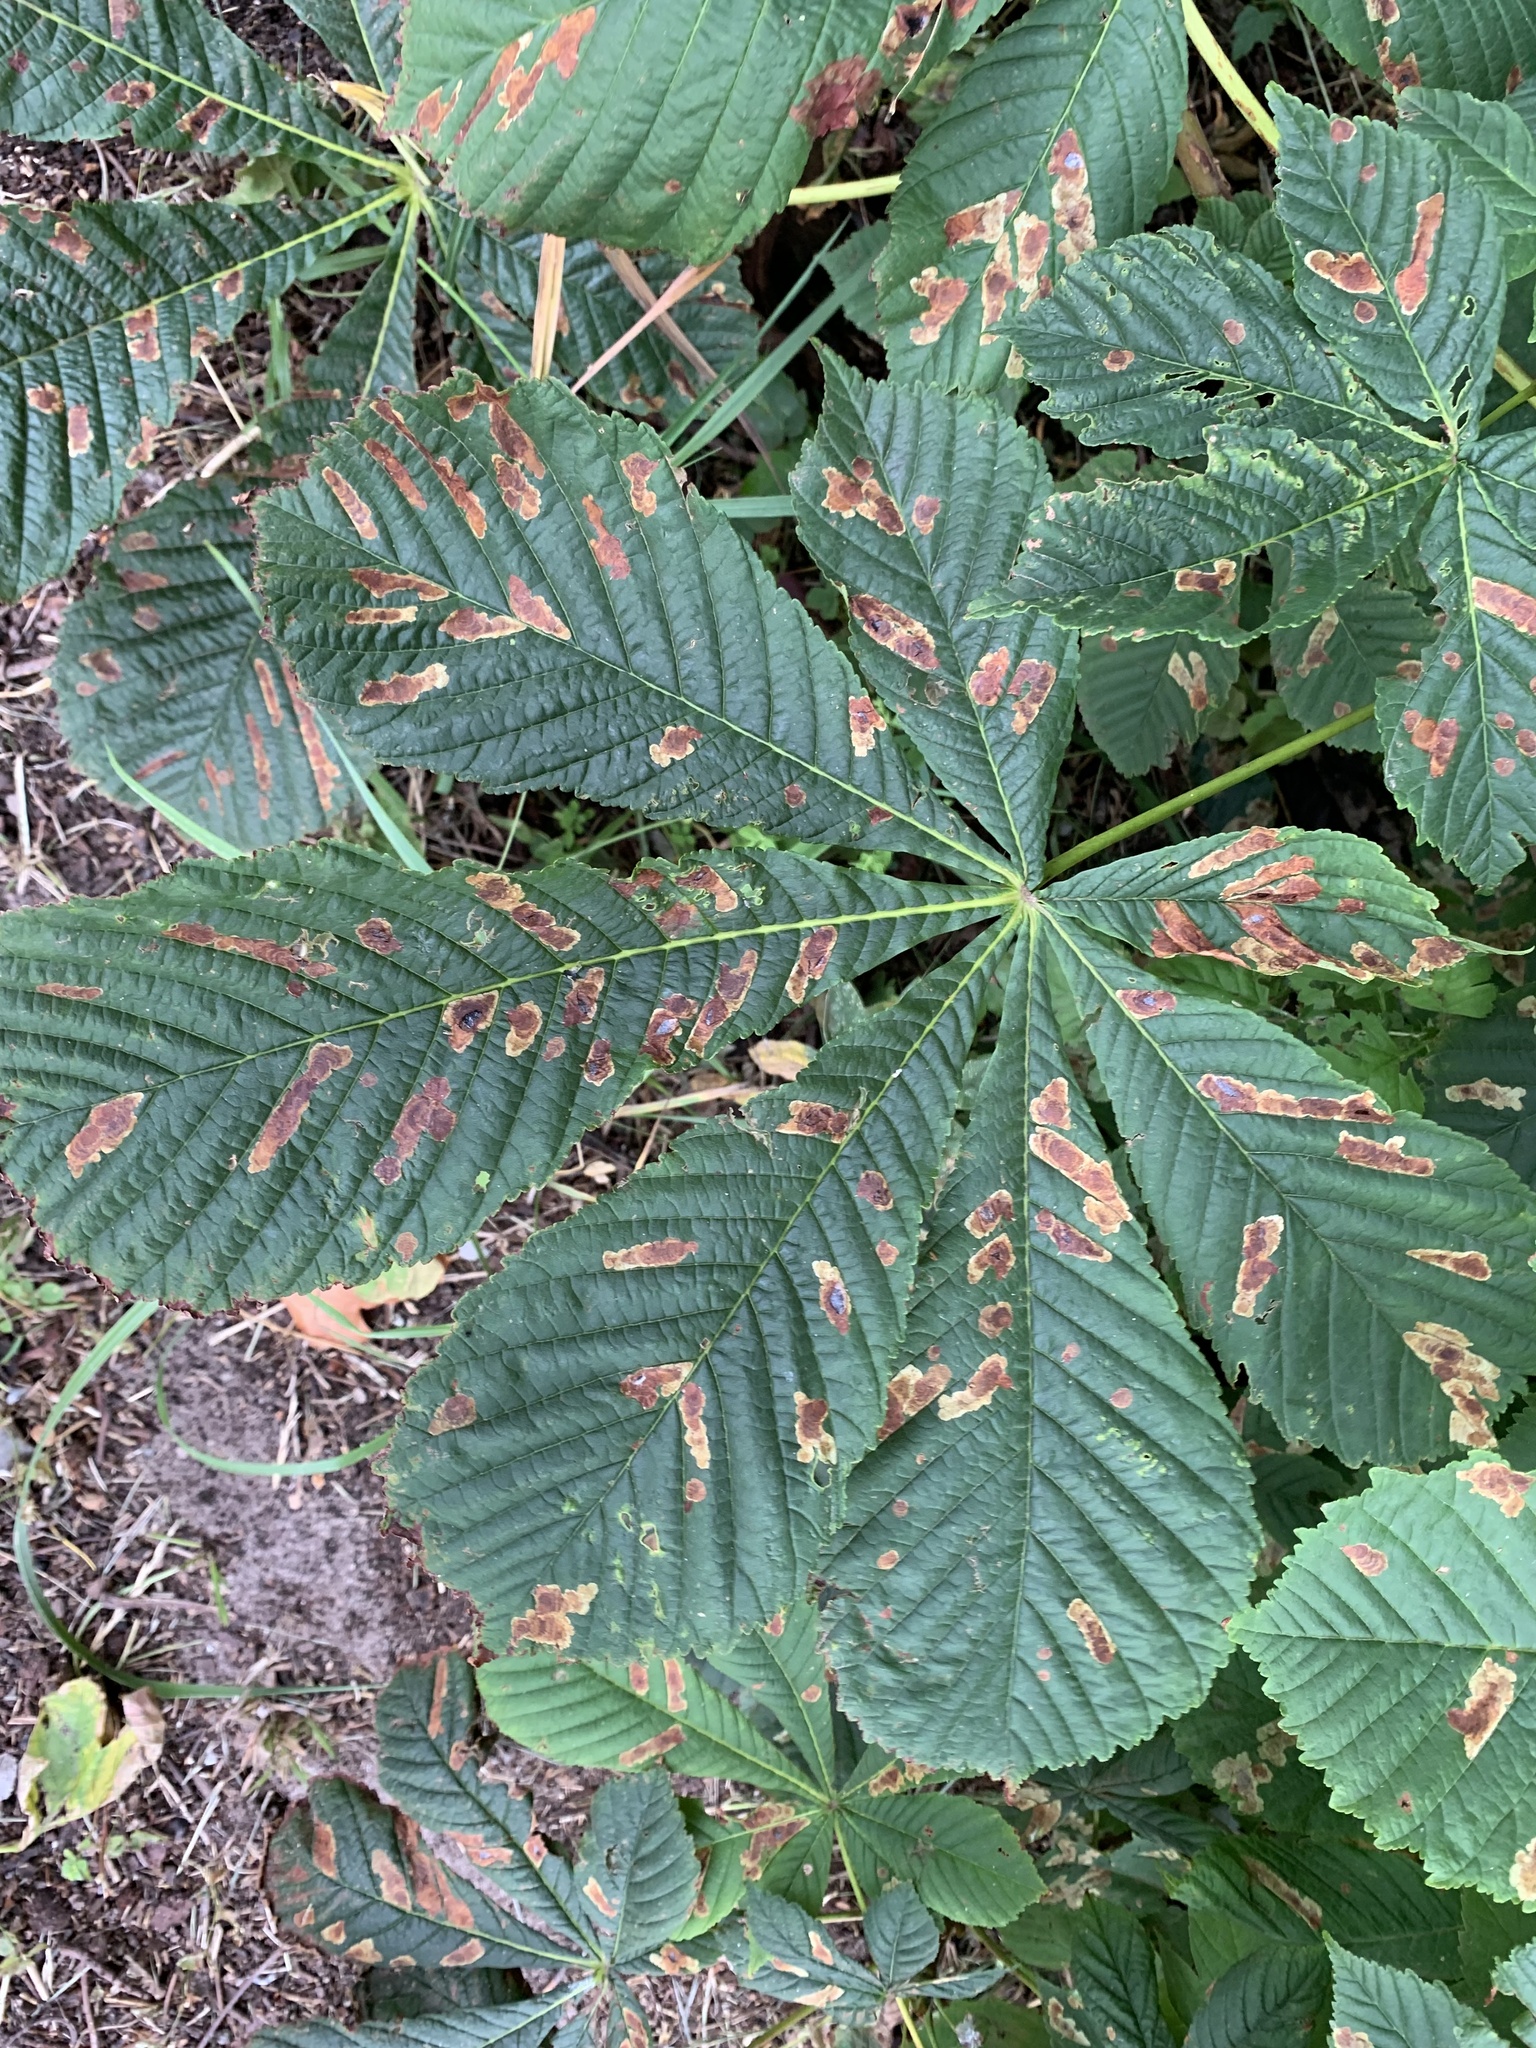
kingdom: Animalia
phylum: Arthropoda
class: Insecta
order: Lepidoptera
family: Gracillariidae
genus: Cameraria
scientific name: Cameraria ohridella
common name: Horse-chestnut leaf-miner
